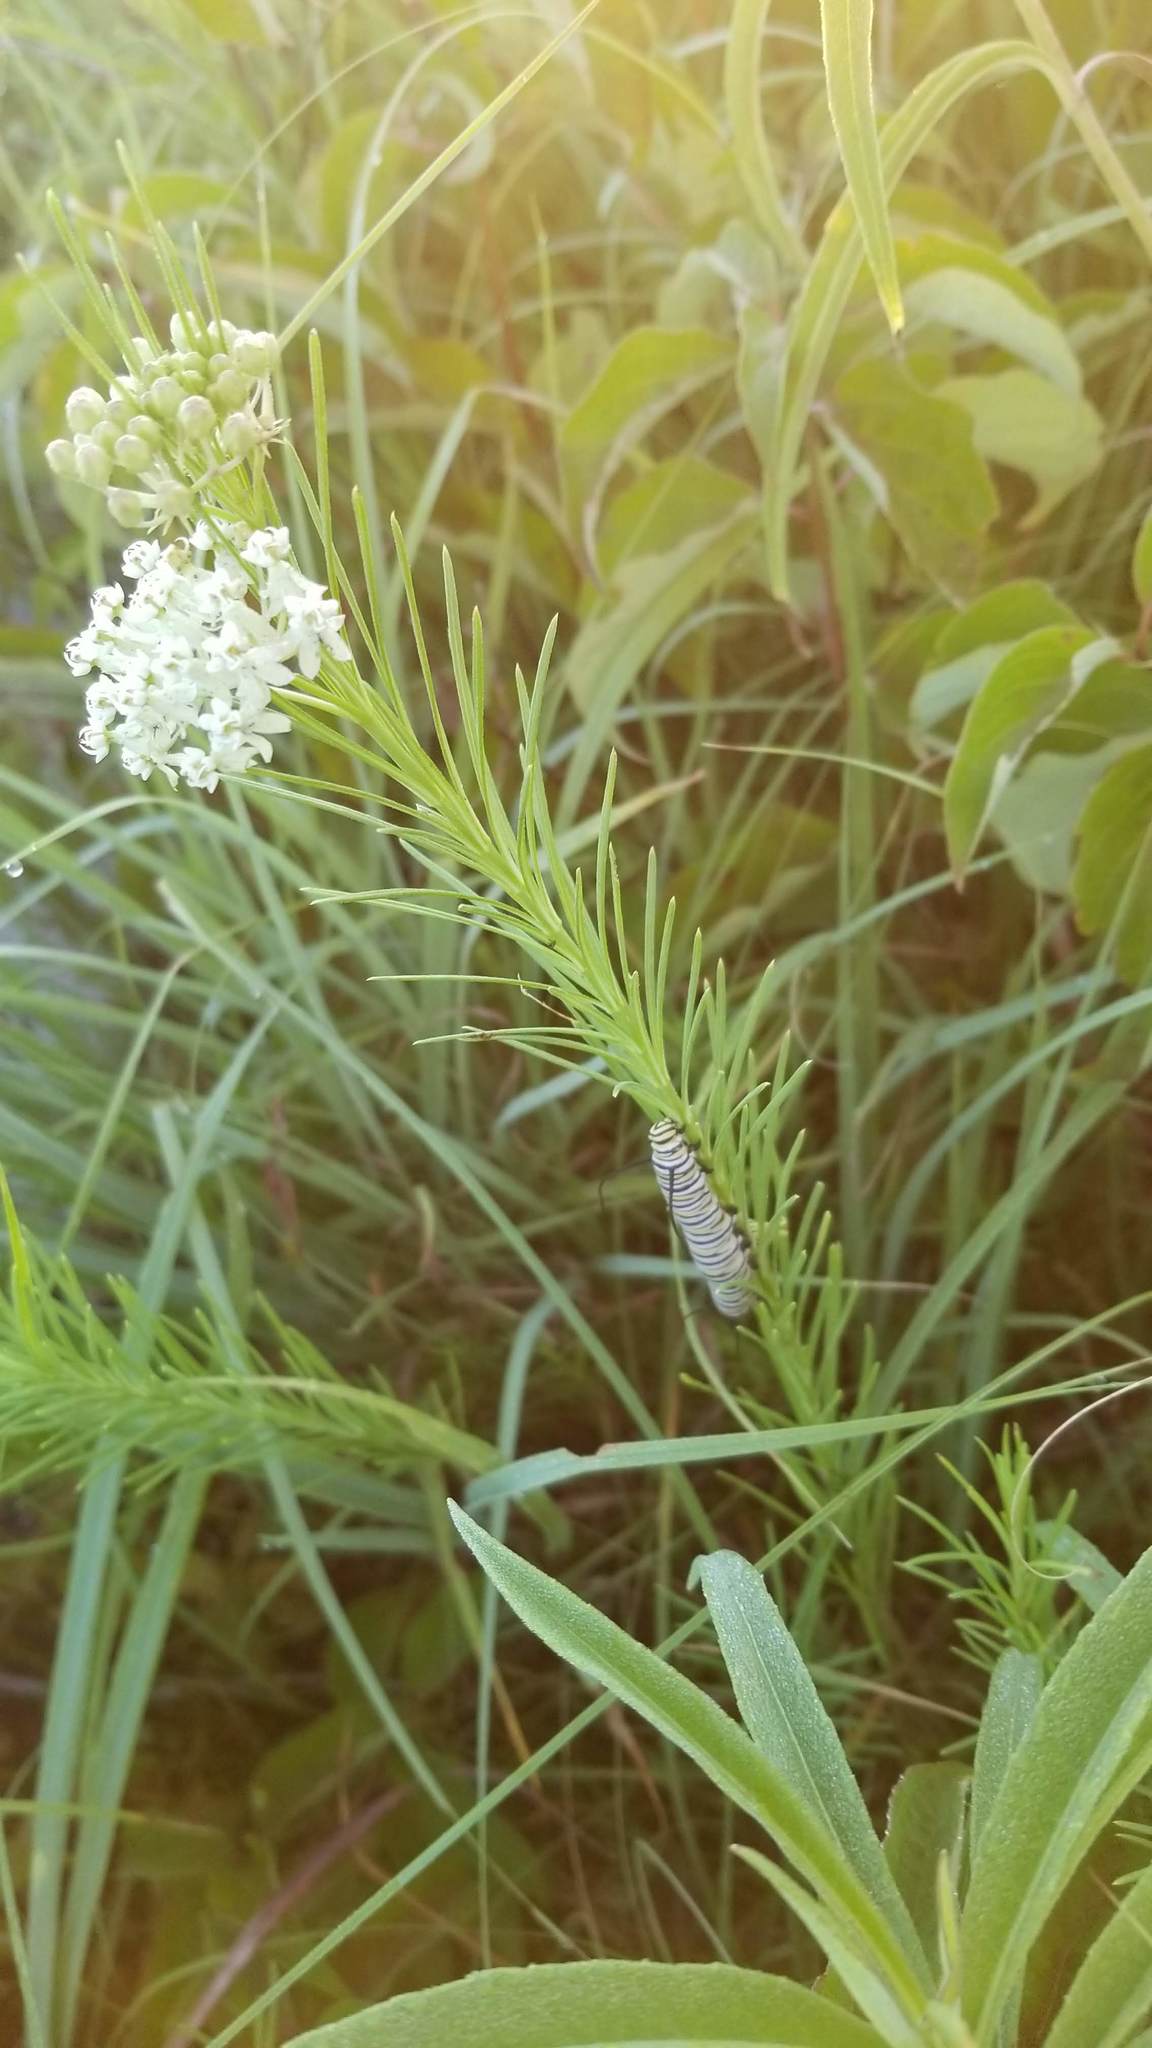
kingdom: Plantae
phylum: Tracheophyta
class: Magnoliopsida
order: Gentianales
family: Apocynaceae
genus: Asclepias
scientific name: Asclepias verticillata
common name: Eastern whorled milkweed
